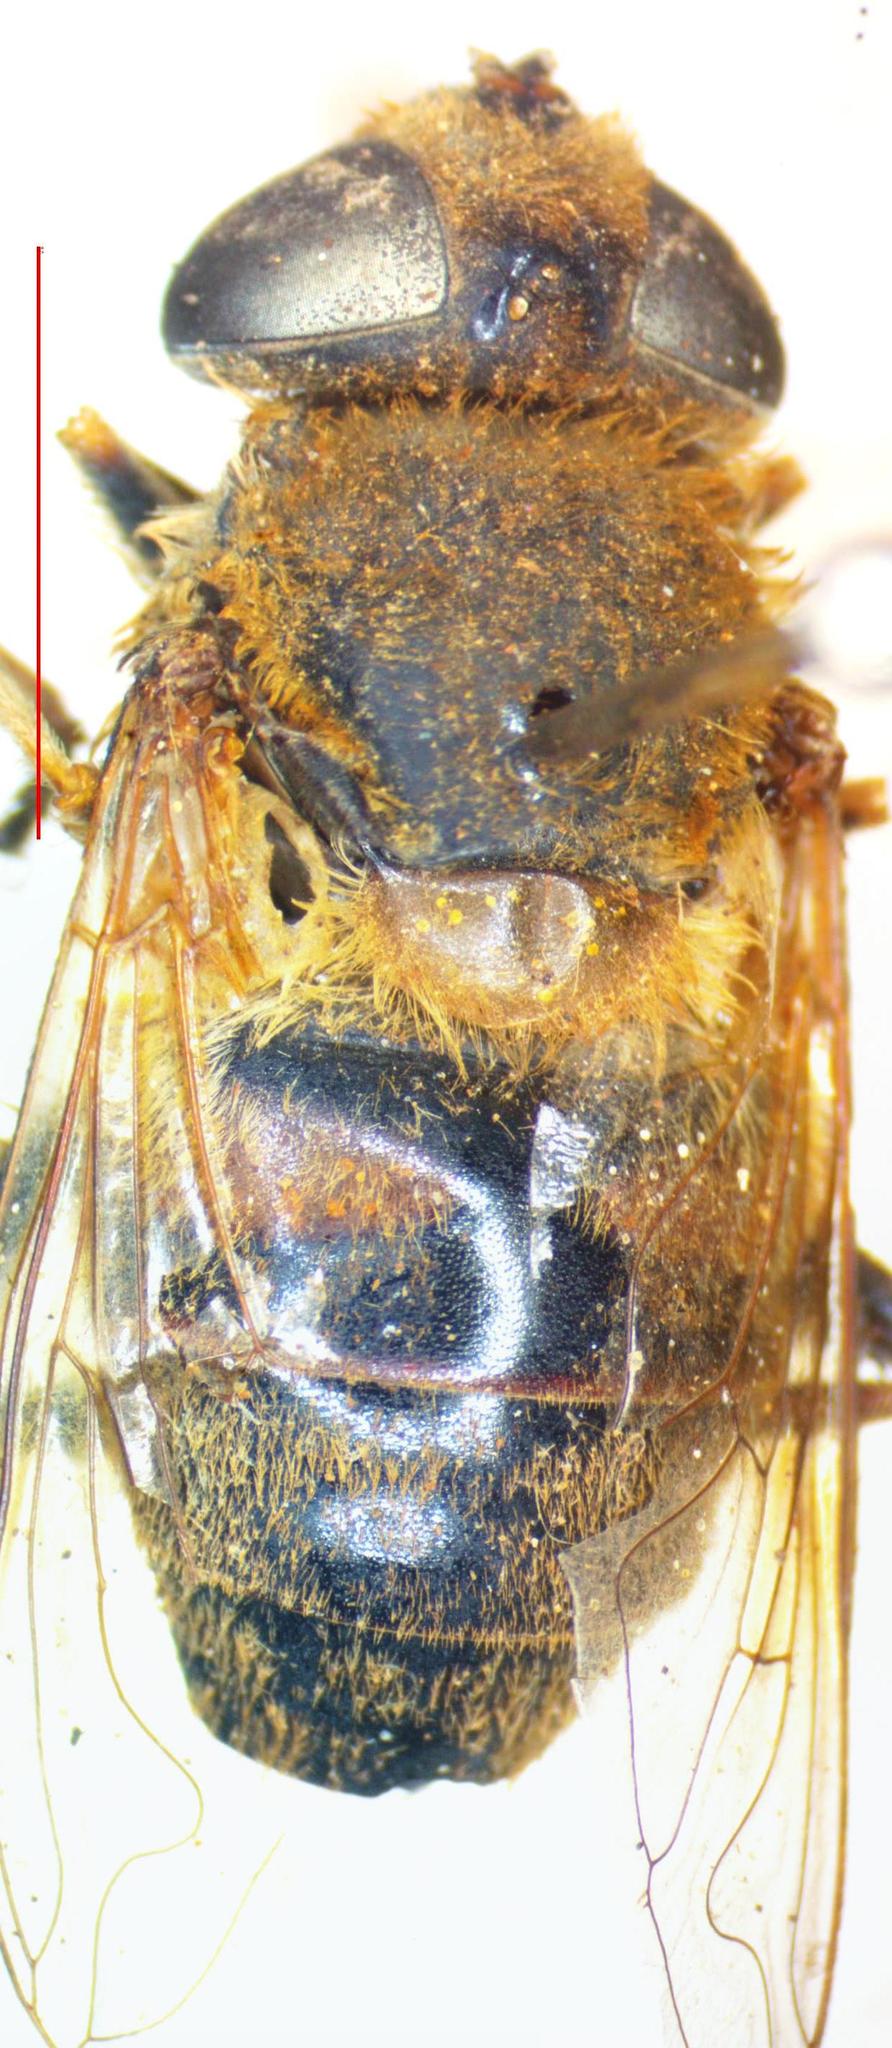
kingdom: Animalia
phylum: Arthropoda
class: Insecta
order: Diptera
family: Syrphidae
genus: Eristalis
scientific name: Eristalis tenax
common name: Drone fly
